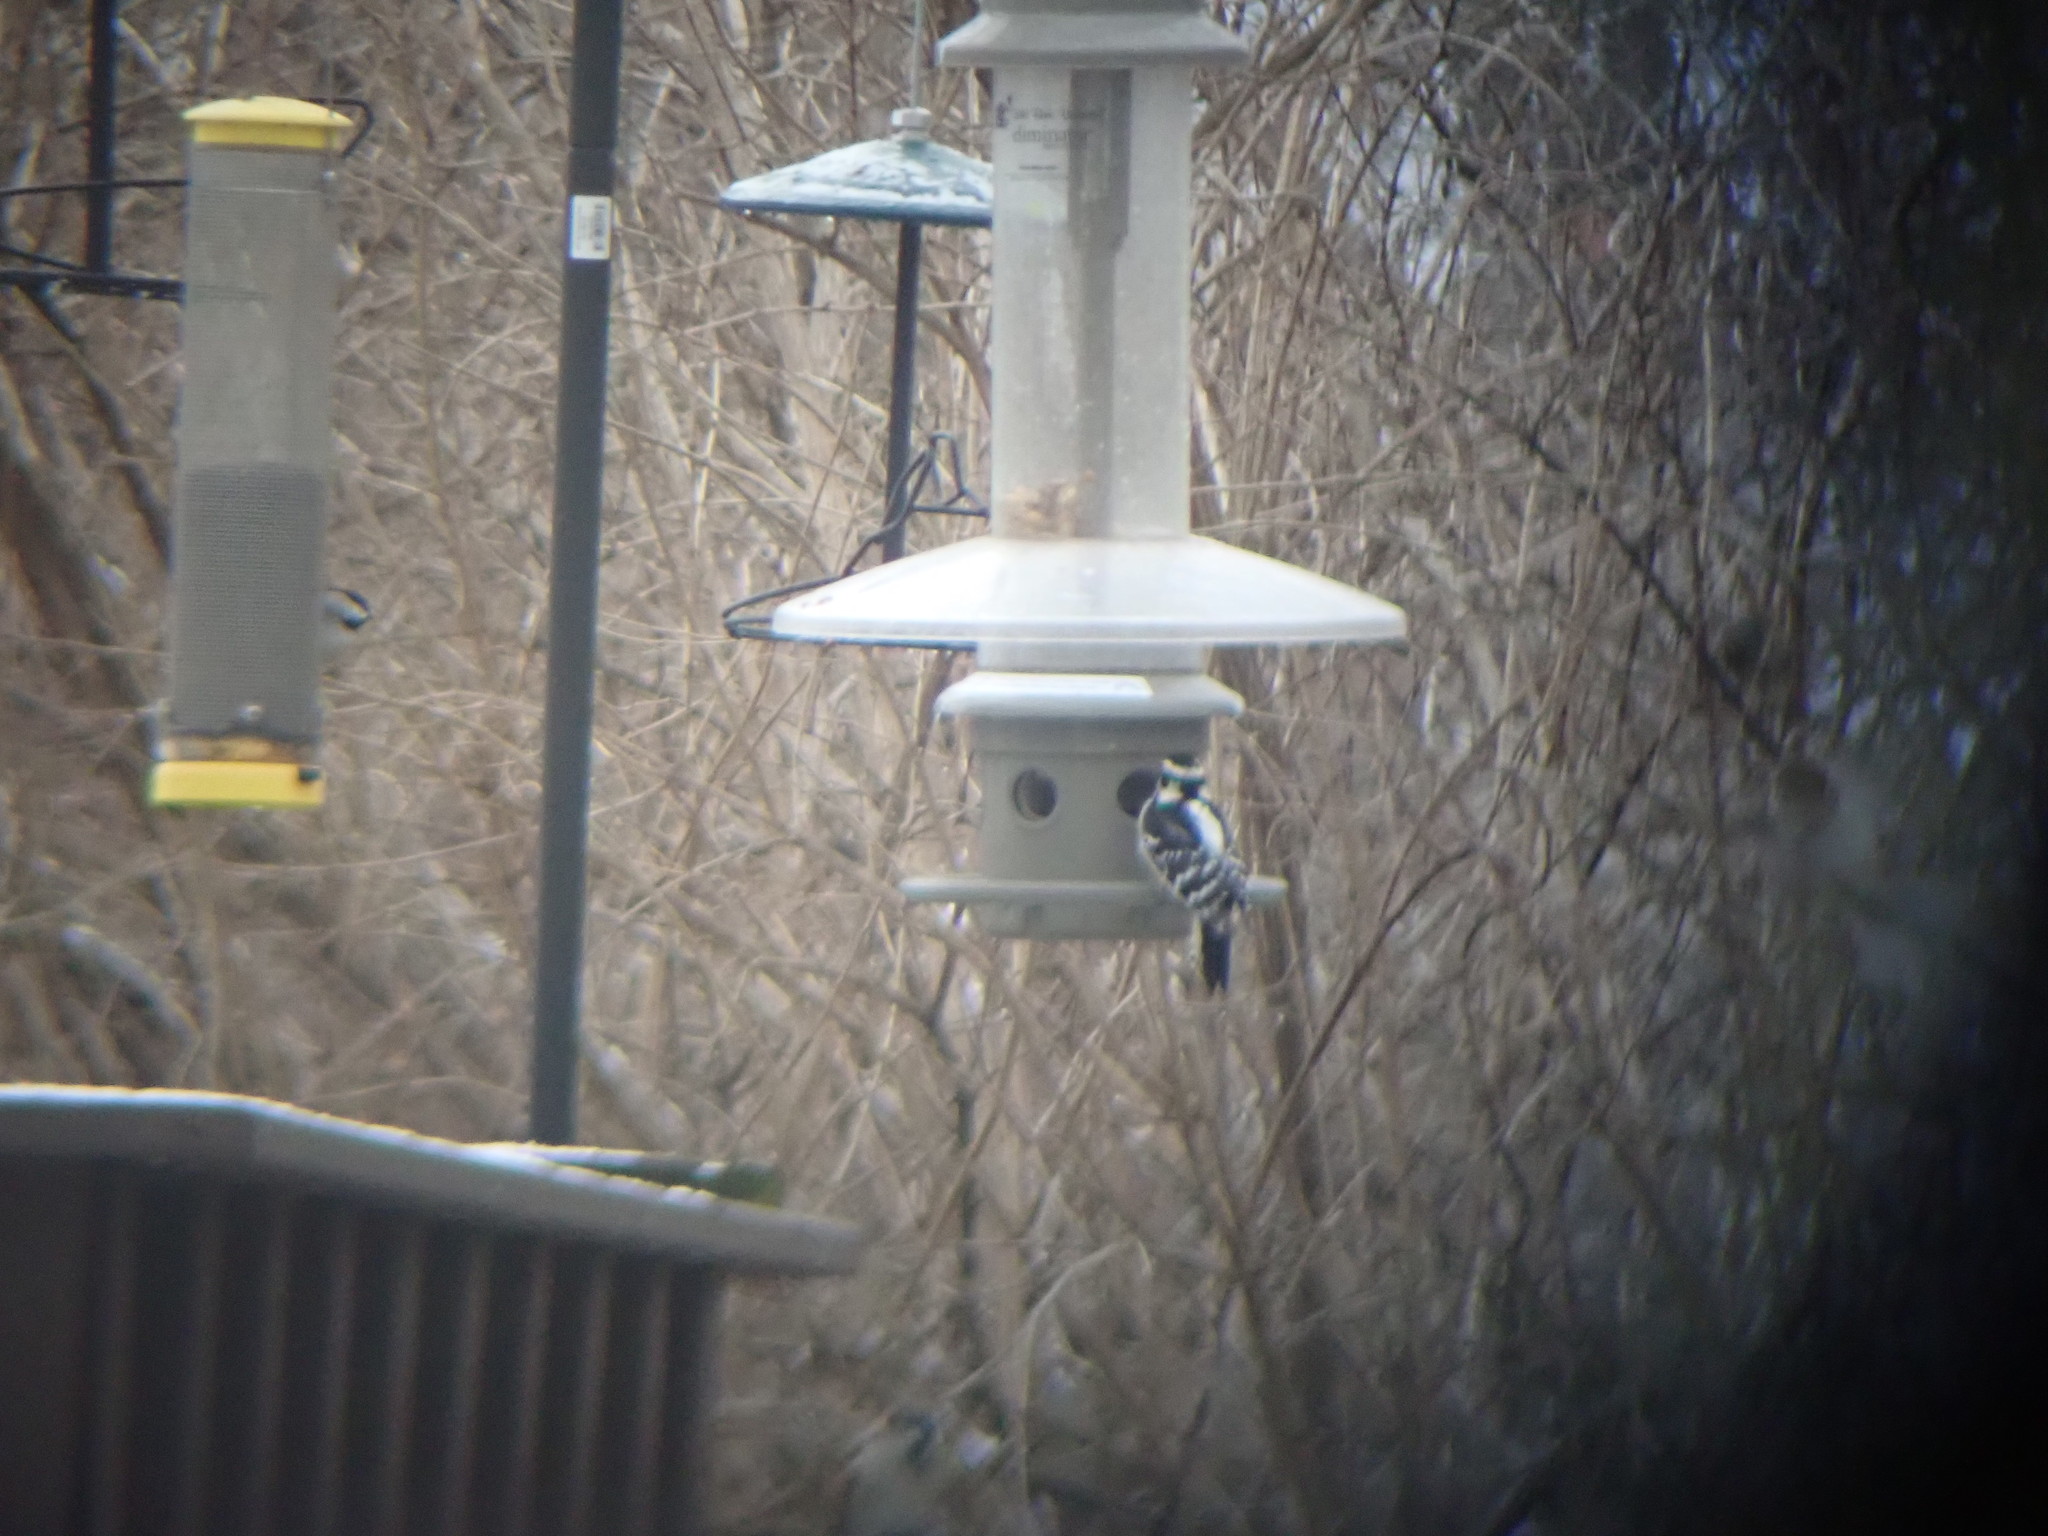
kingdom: Animalia
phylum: Chordata
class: Aves
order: Piciformes
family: Picidae
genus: Dryobates
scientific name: Dryobates pubescens
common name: Downy woodpecker
